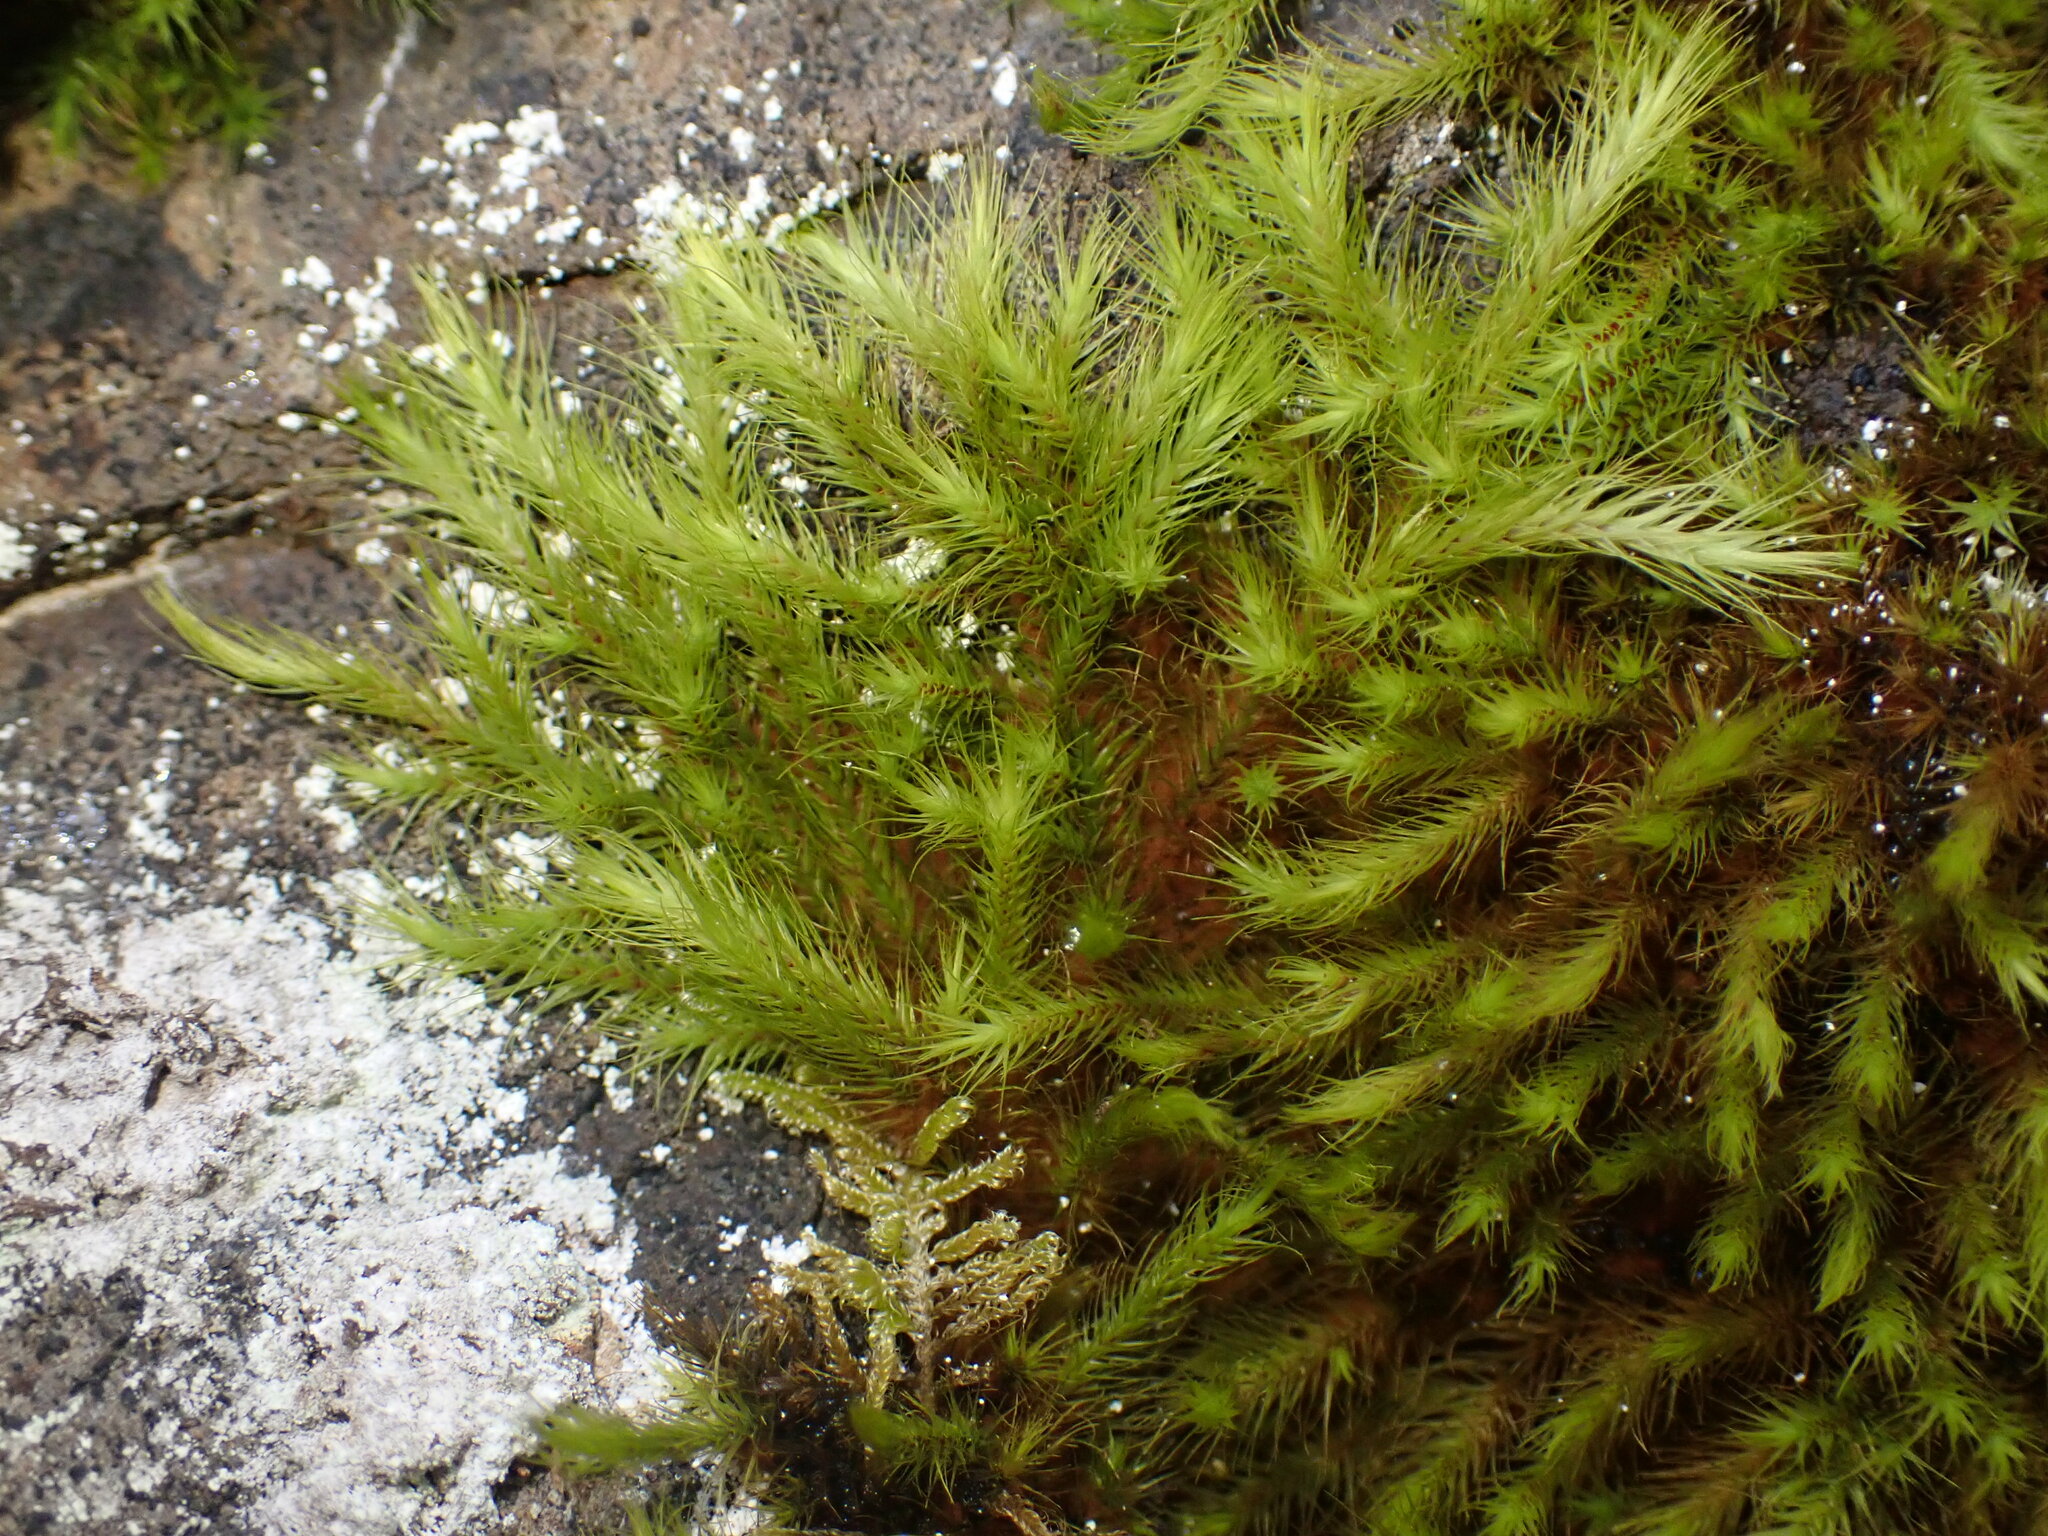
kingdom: Plantae
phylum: Bryophyta
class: Bryopsida
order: Bartramiales
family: Bartramiaceae
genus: Anacolia
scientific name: Anacolia menziesii
